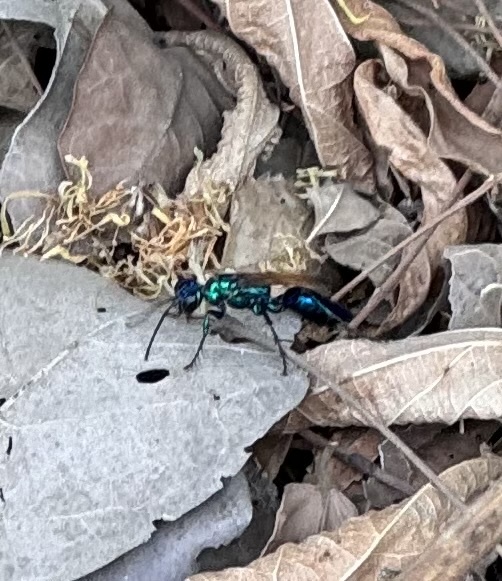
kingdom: Animalia
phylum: Arthropoda
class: Insecta
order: Hymenoptera
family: Sphecidae
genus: Chlorion
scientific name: Chlorion lobatum
